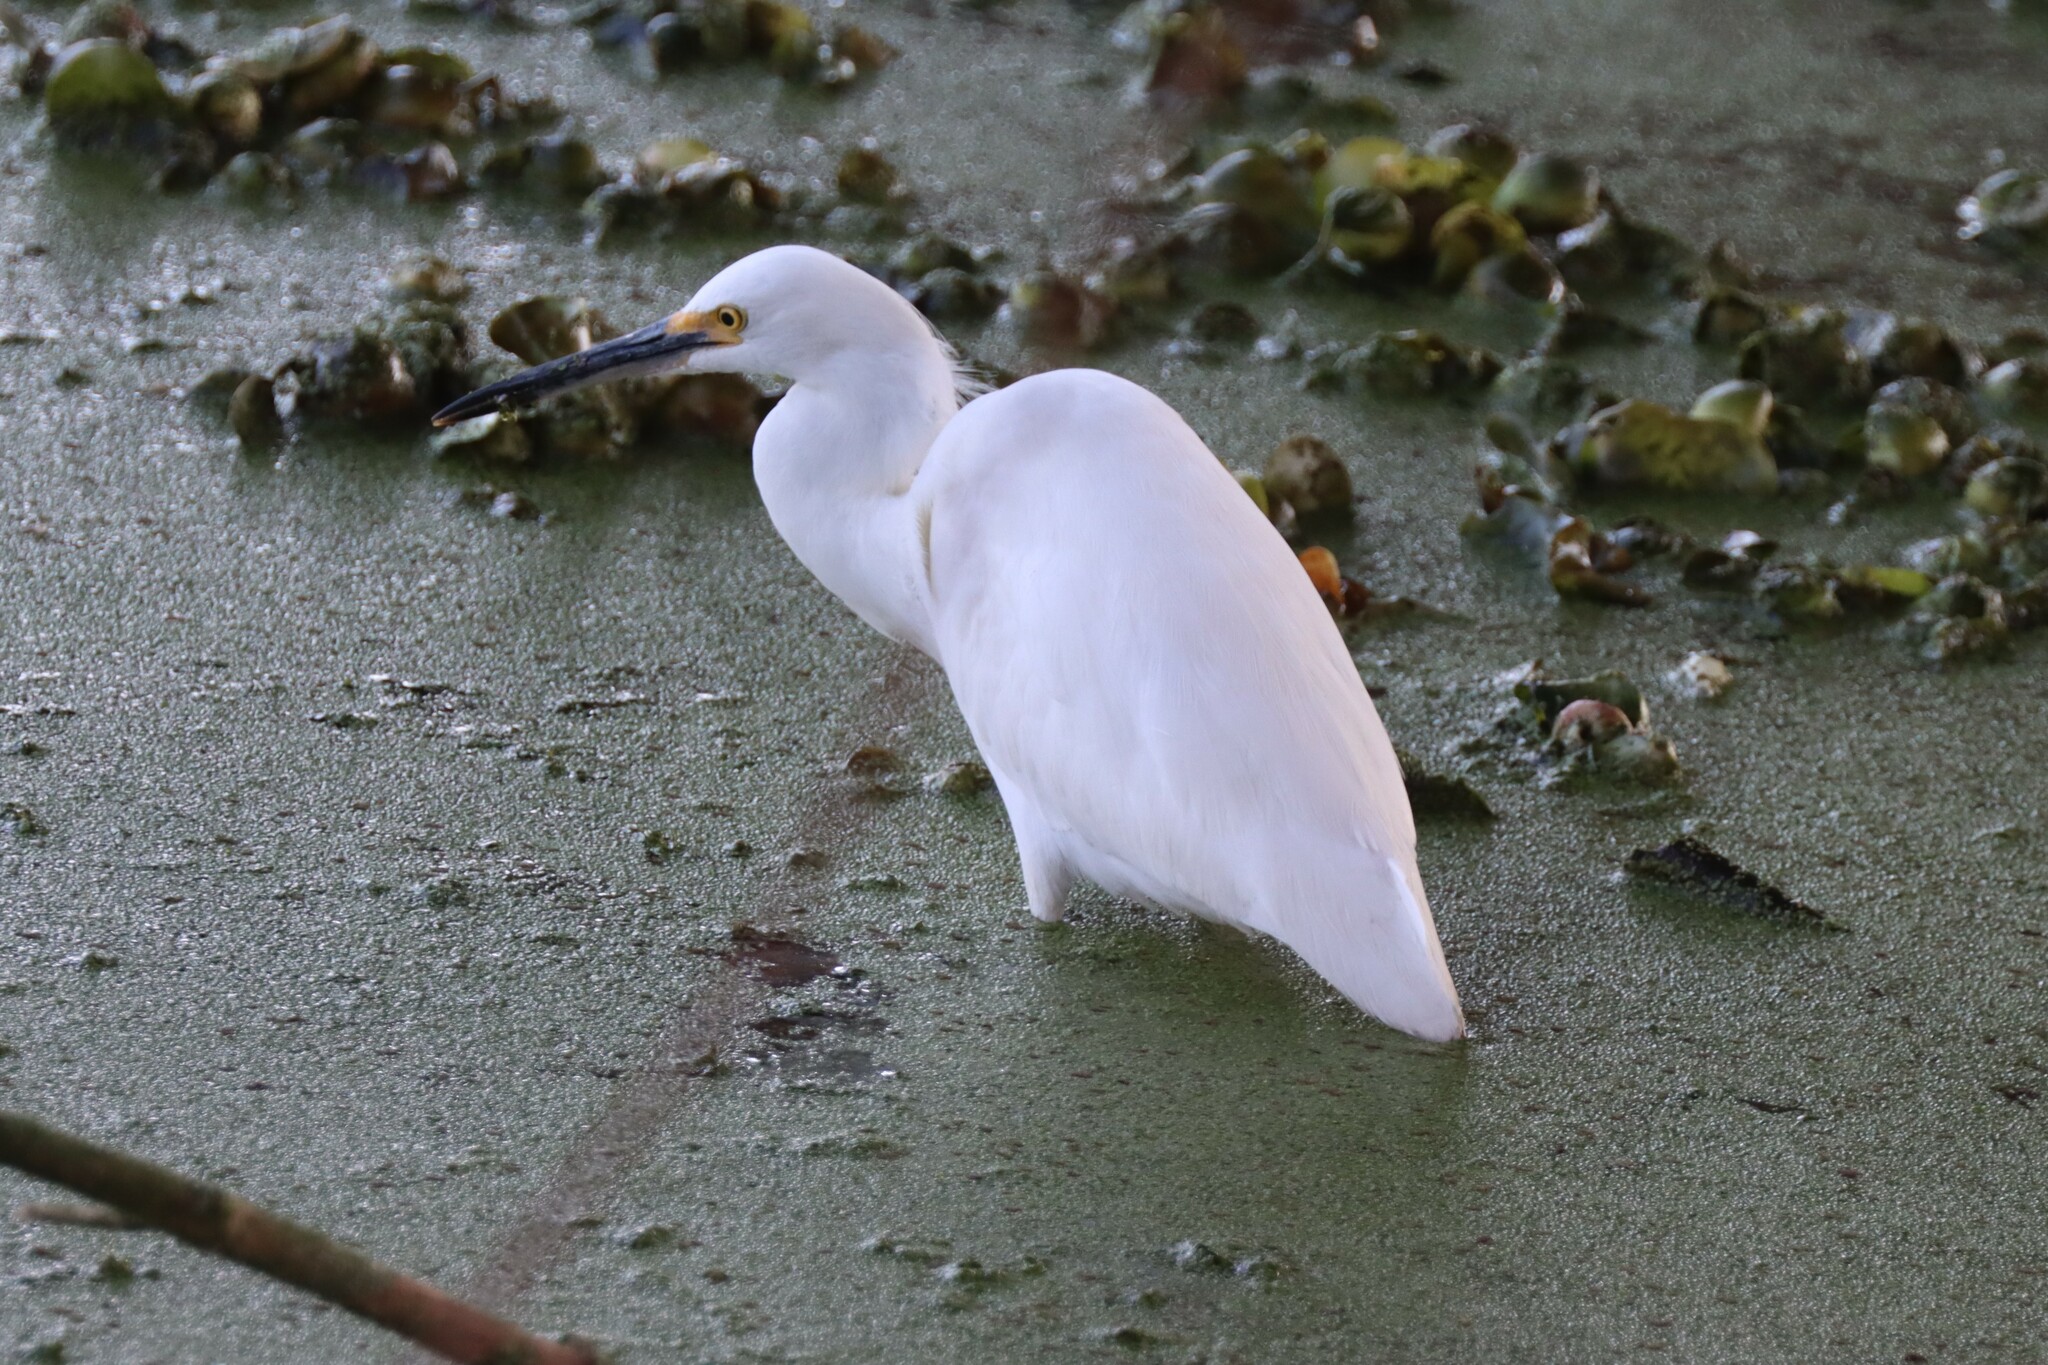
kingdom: Animalia
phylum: Chordata
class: Aves
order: Pelecaniformes
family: Ardeidae
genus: Egretta
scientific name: Egretta thula
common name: Snowy egret
